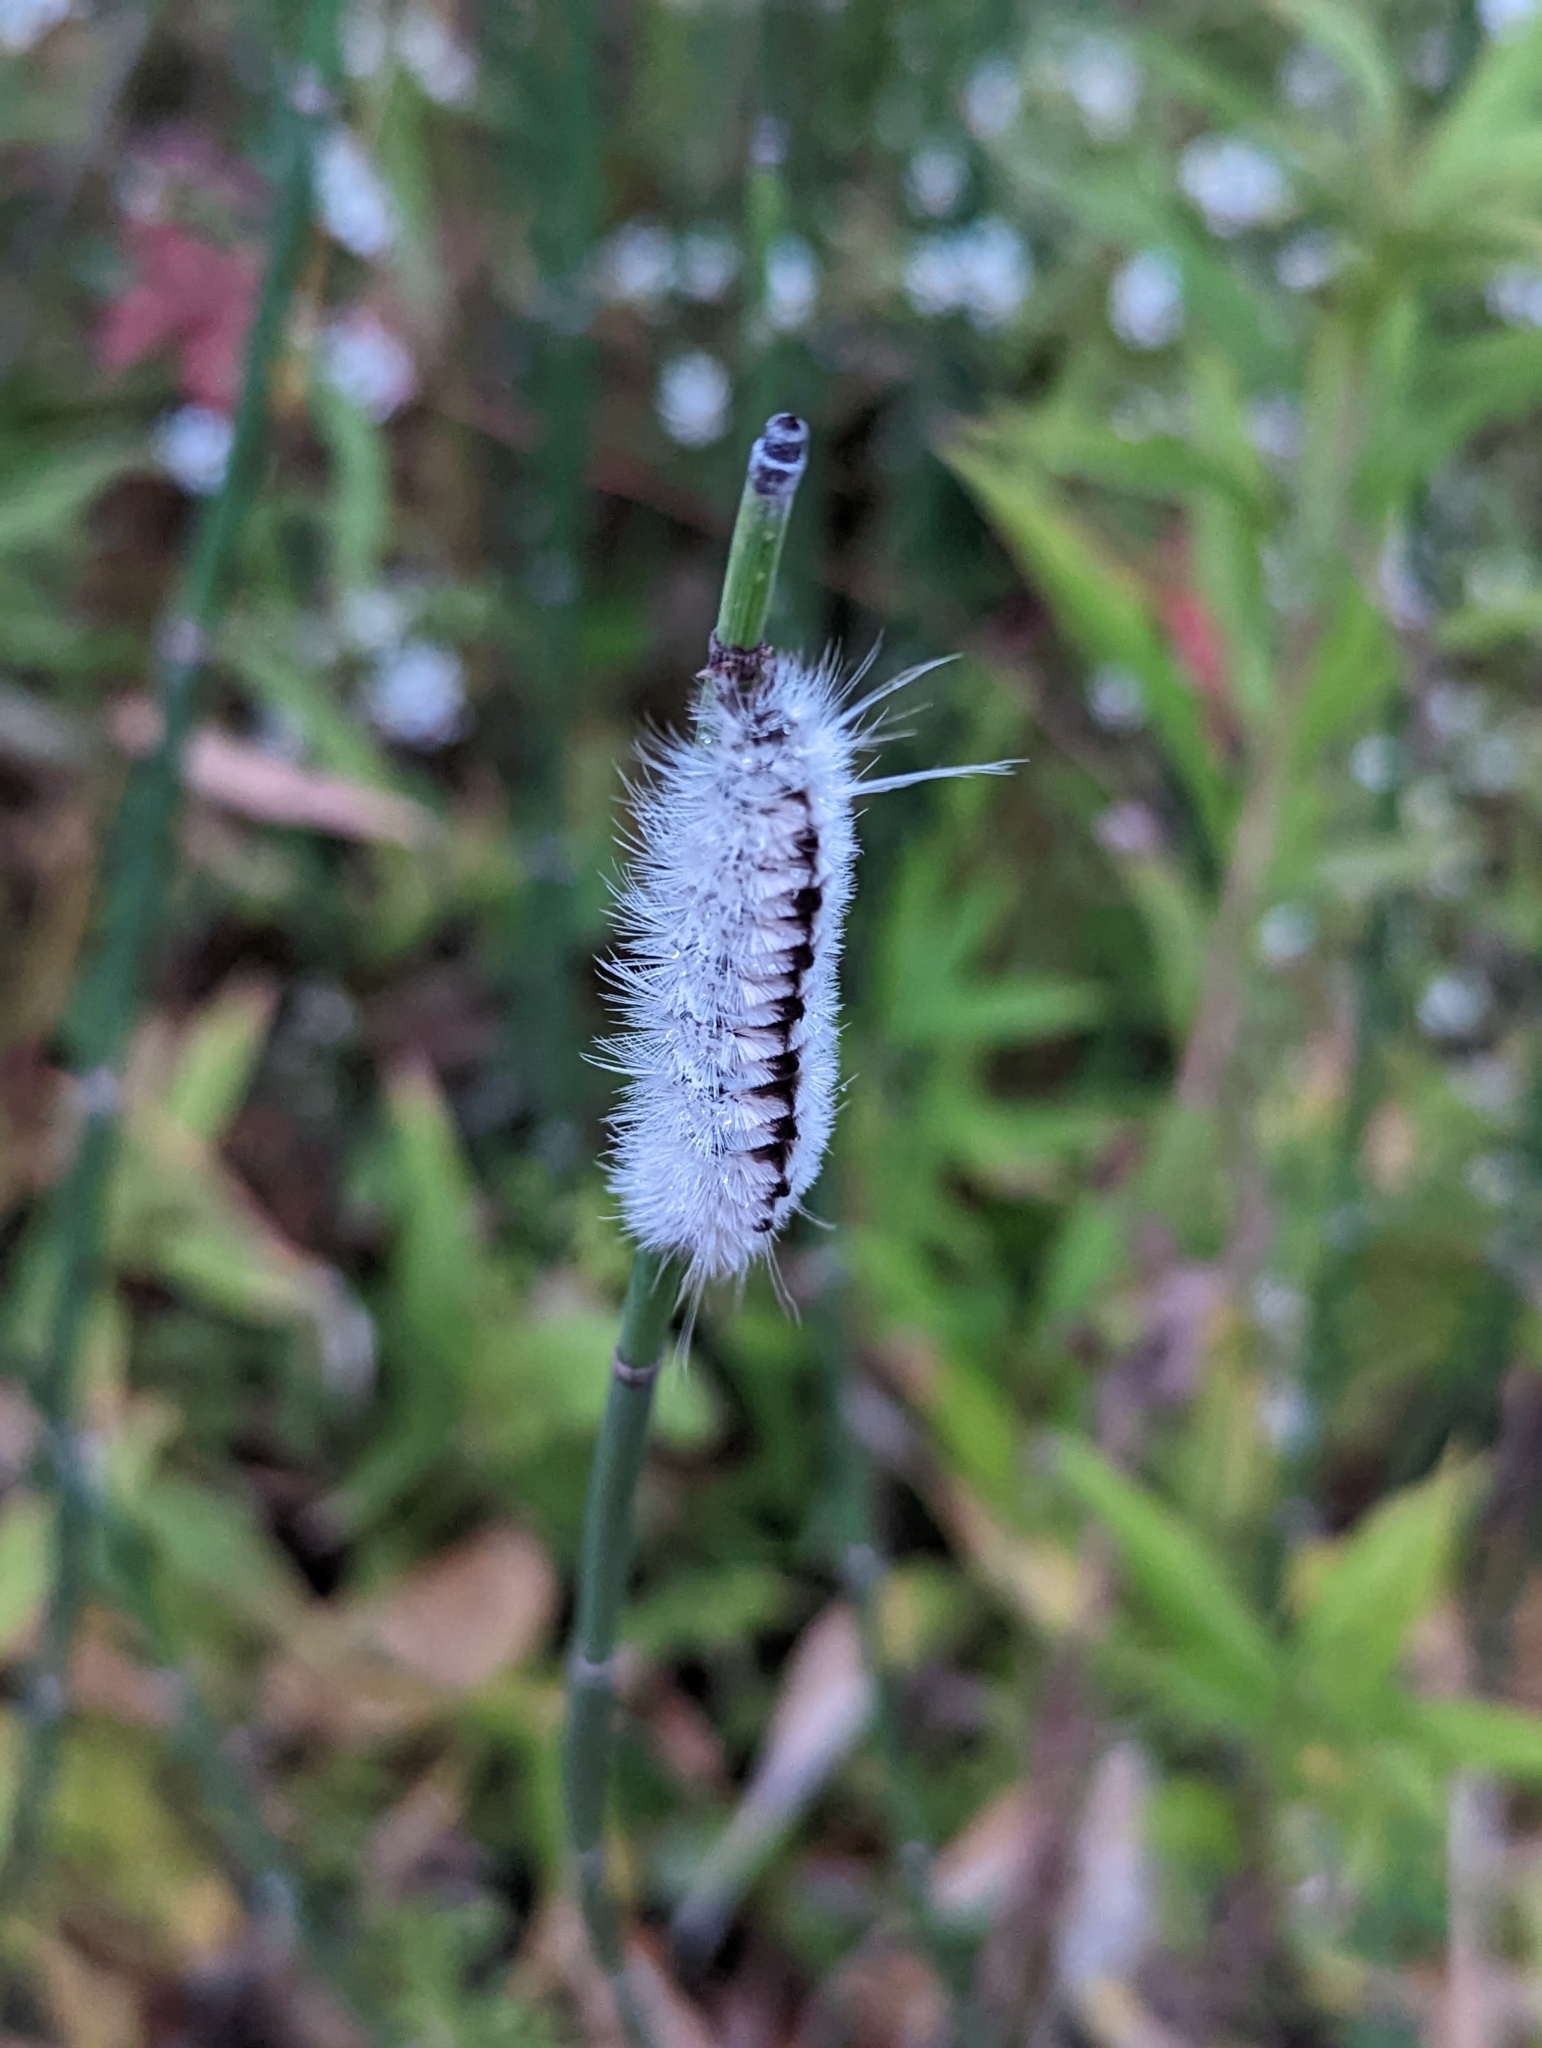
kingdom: Animalia
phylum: Arthropoda
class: Insecta
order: Lepidoptera
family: Erebidae
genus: Lophocampa
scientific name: Lophocampa caryae
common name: Hickory tussock moth
